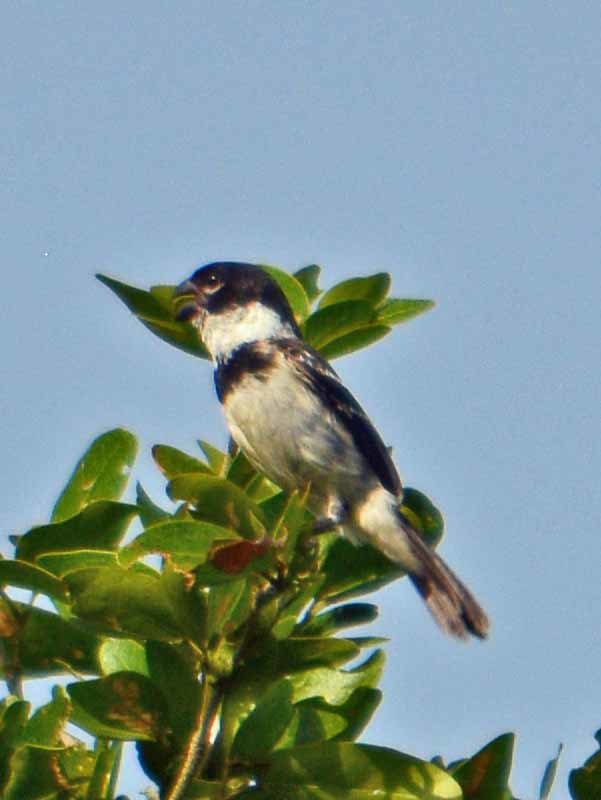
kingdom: Animalia
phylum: Chordata
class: Aves
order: Passeriformes
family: Thraupidae
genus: Sporophila
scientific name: Sporophila morelleti
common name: Morelet's seedeater
